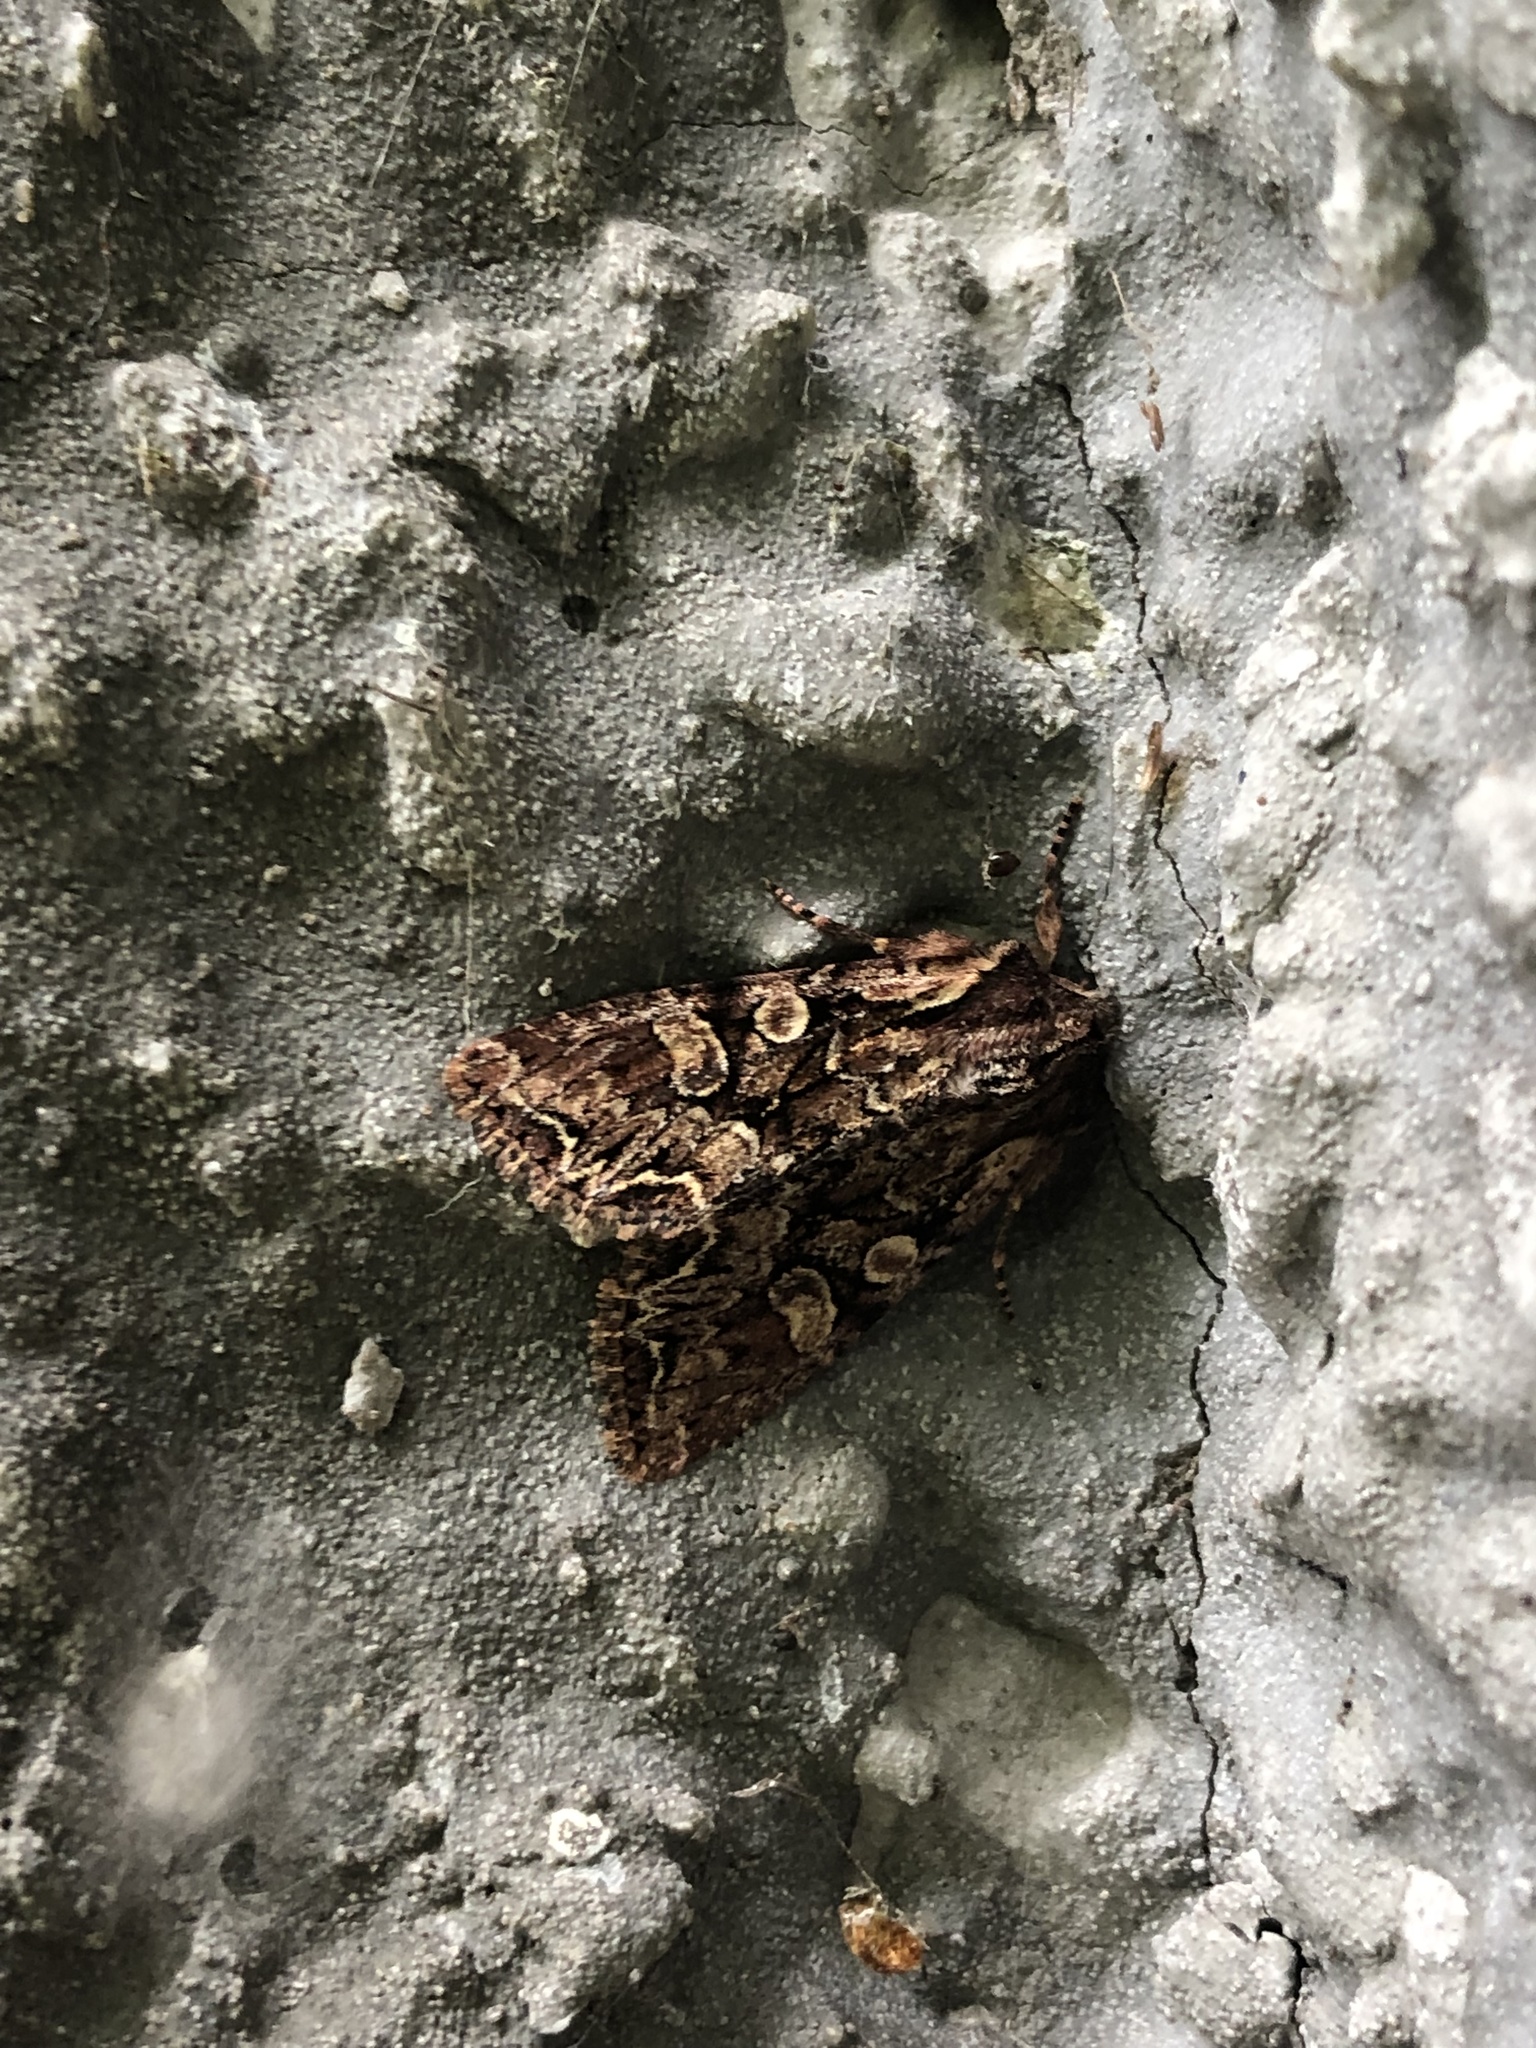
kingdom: Animalia
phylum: Arthropoda
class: Insecta
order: Lepidoptera
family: Noctuidae
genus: Lacanobia
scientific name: Lacanobia thalassina
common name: Pale-shouldered brocade
